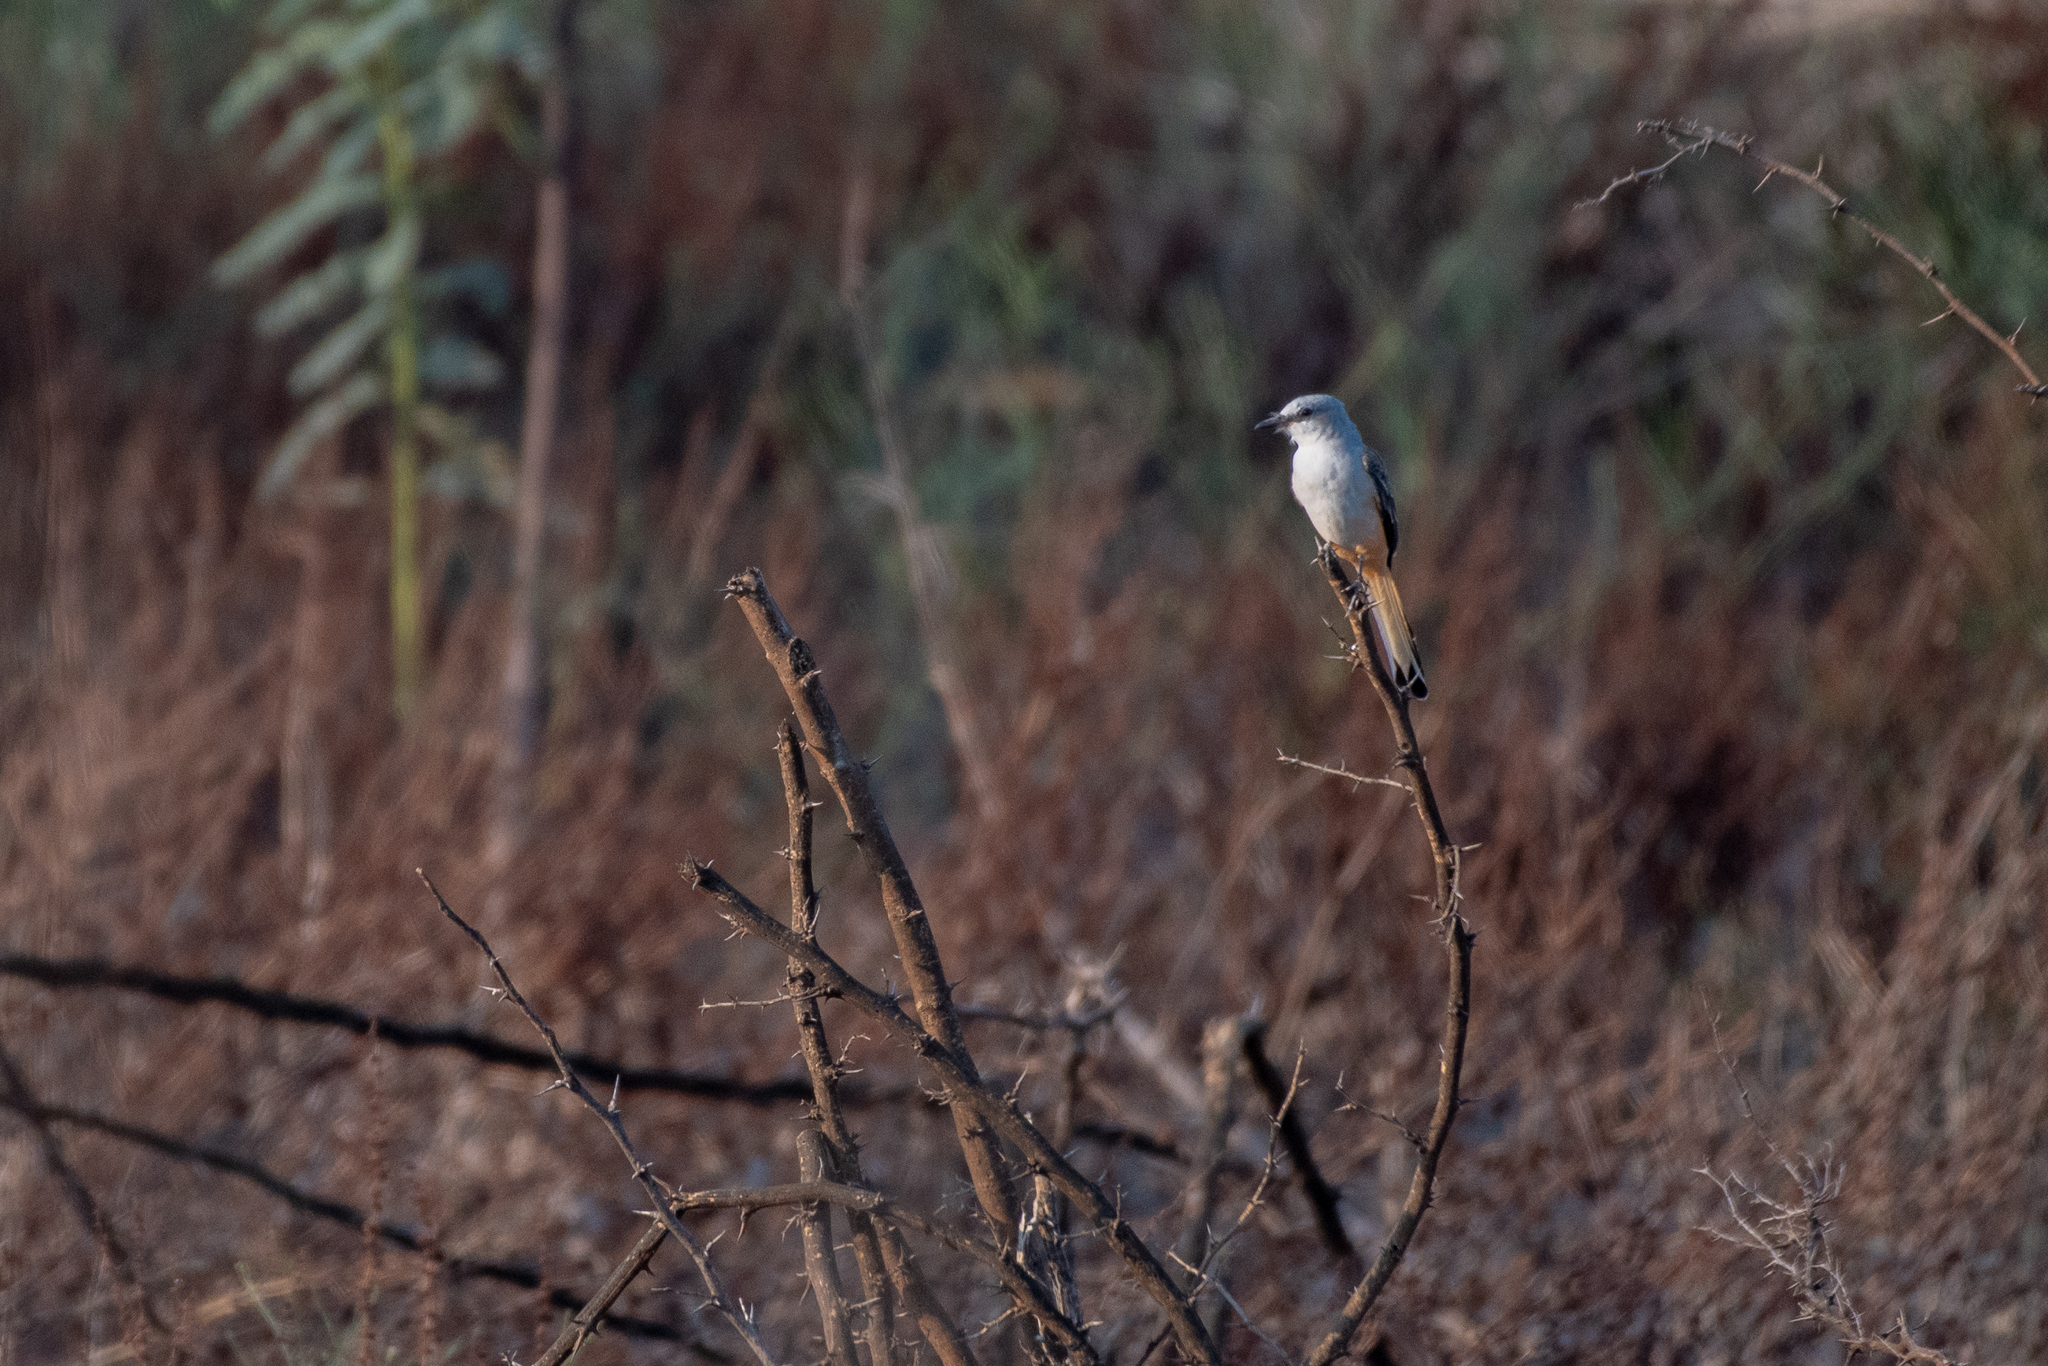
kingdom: Animalia
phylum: Chordata
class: Aves
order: Passeriformes
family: Tyrannidae
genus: Tyrannus
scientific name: Tyrannus forficatus
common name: Scissor-tailed flycatcher
